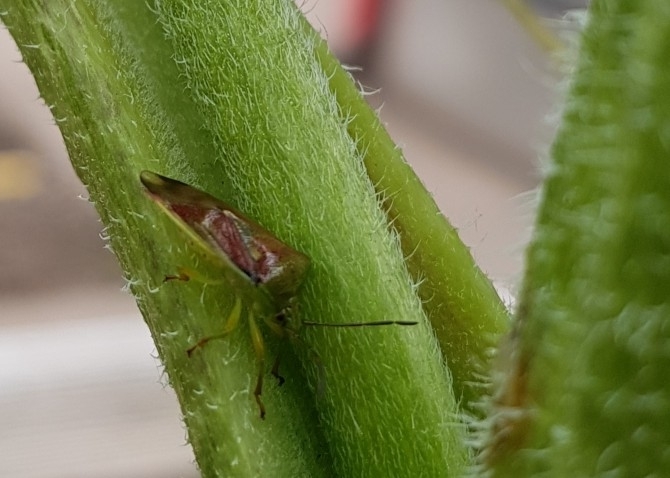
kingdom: Animalia
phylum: Arthropoda
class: Insecta
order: Hemiptera
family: Acanthosomatidae
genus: Elasmostethus
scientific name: Elasmostethus interstinctus
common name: Birch shieldbug
